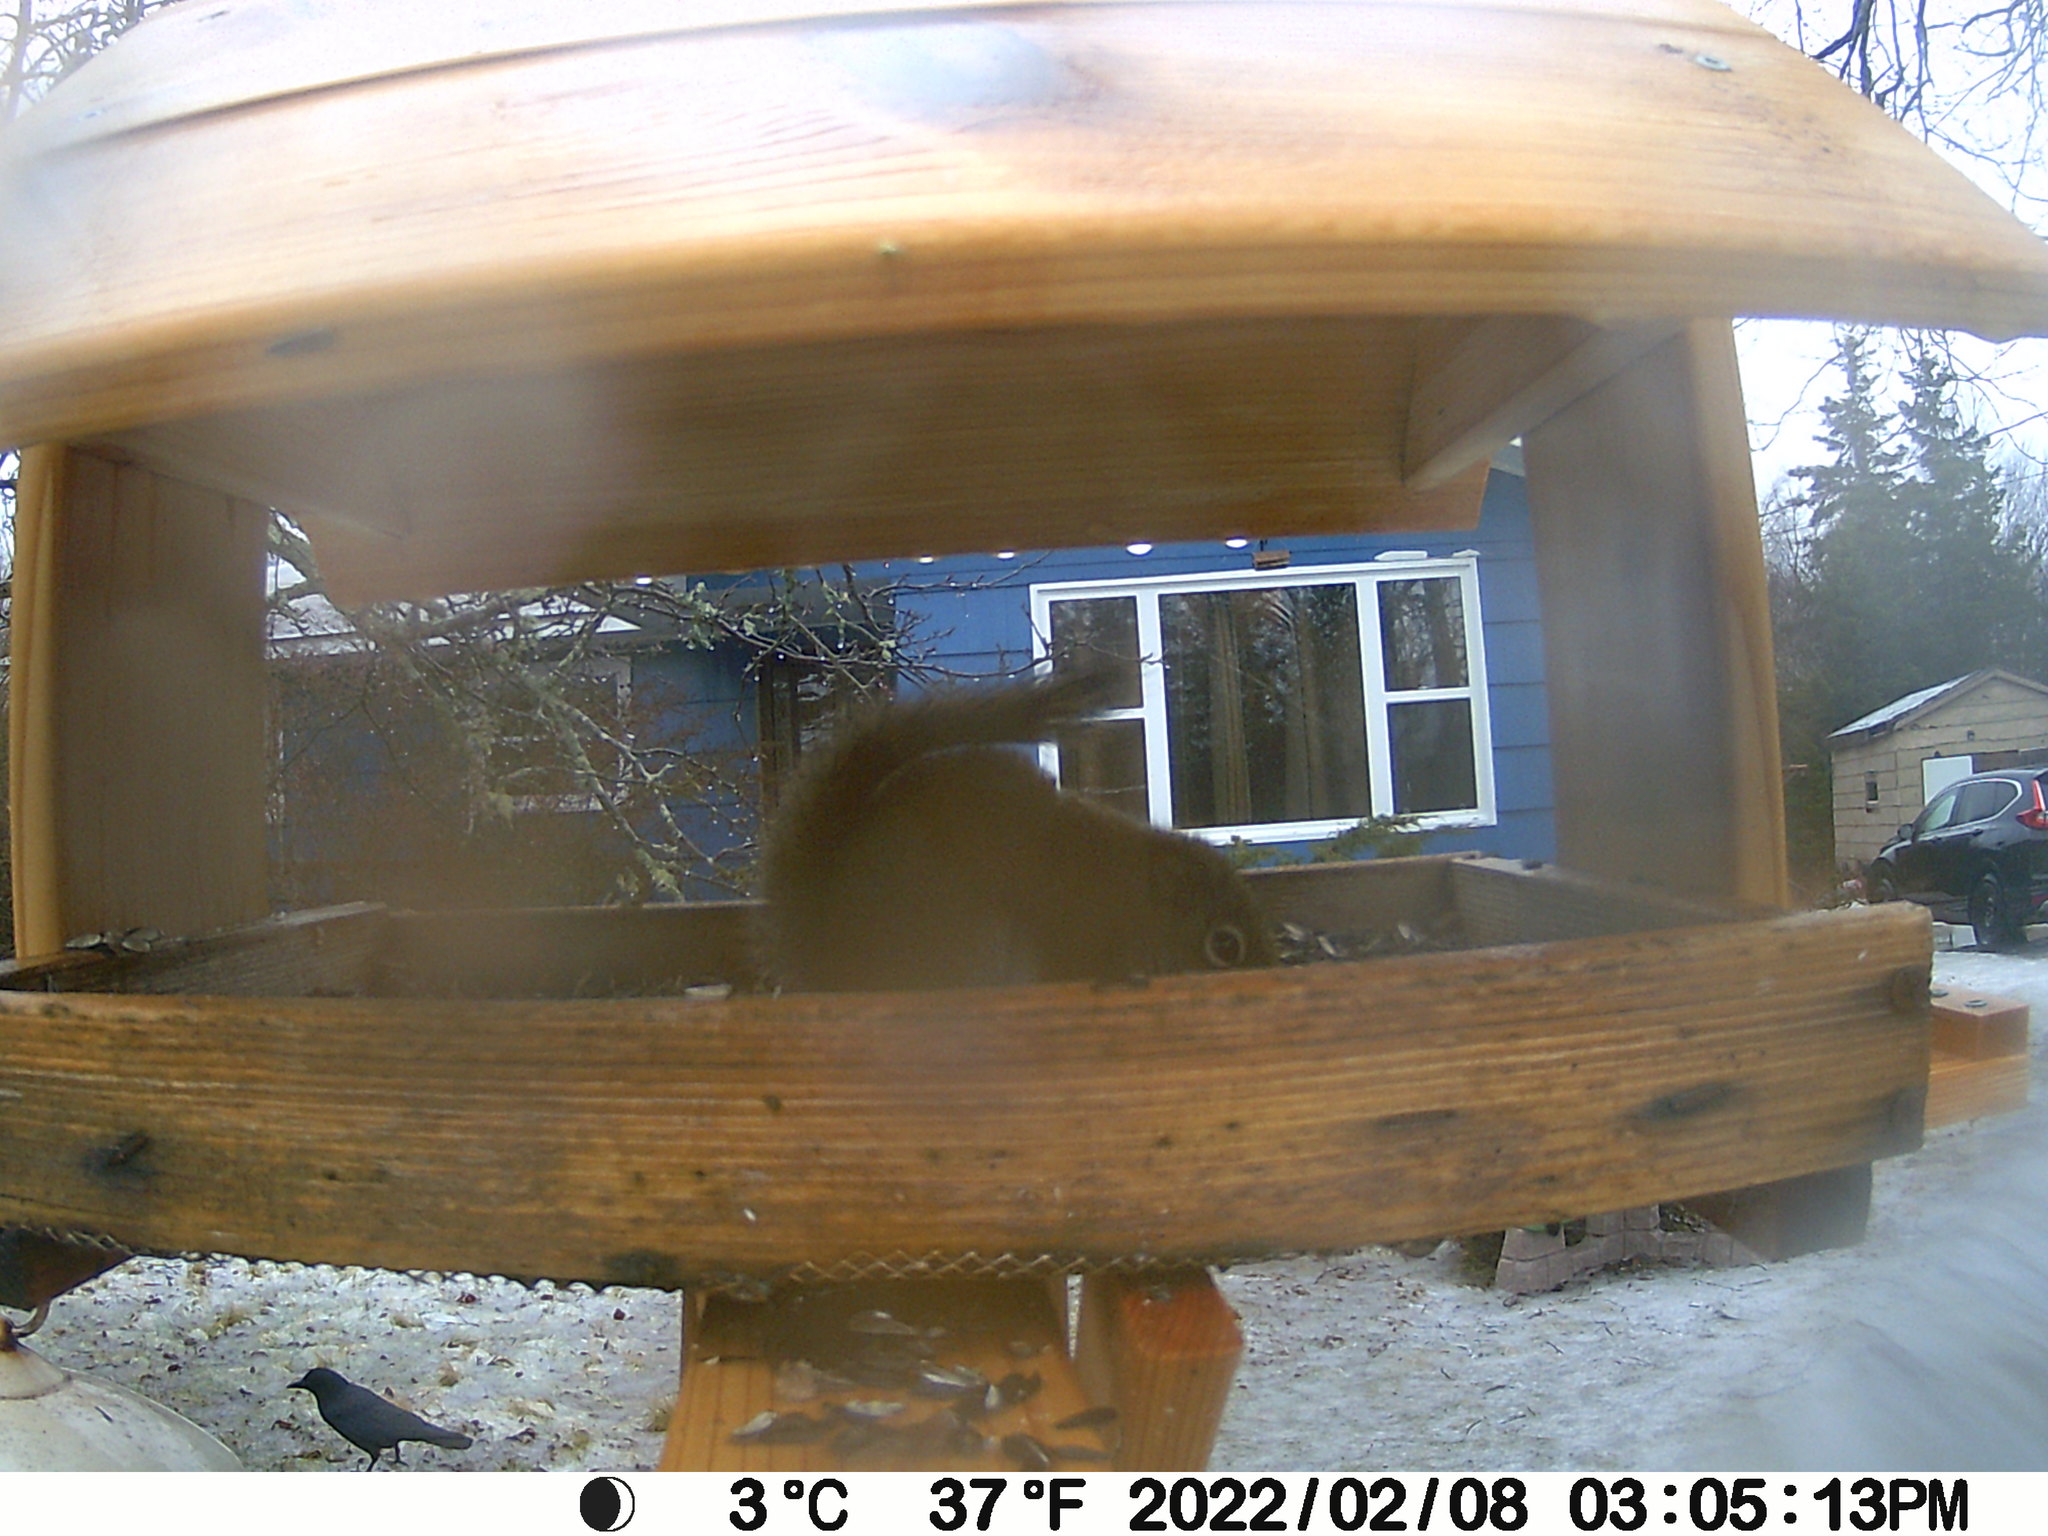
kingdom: Animalia
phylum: Chordata
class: Aves
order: Passeriformes
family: Corvidae
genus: Corvus
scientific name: Corvus brachyrhynchos
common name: American crow
